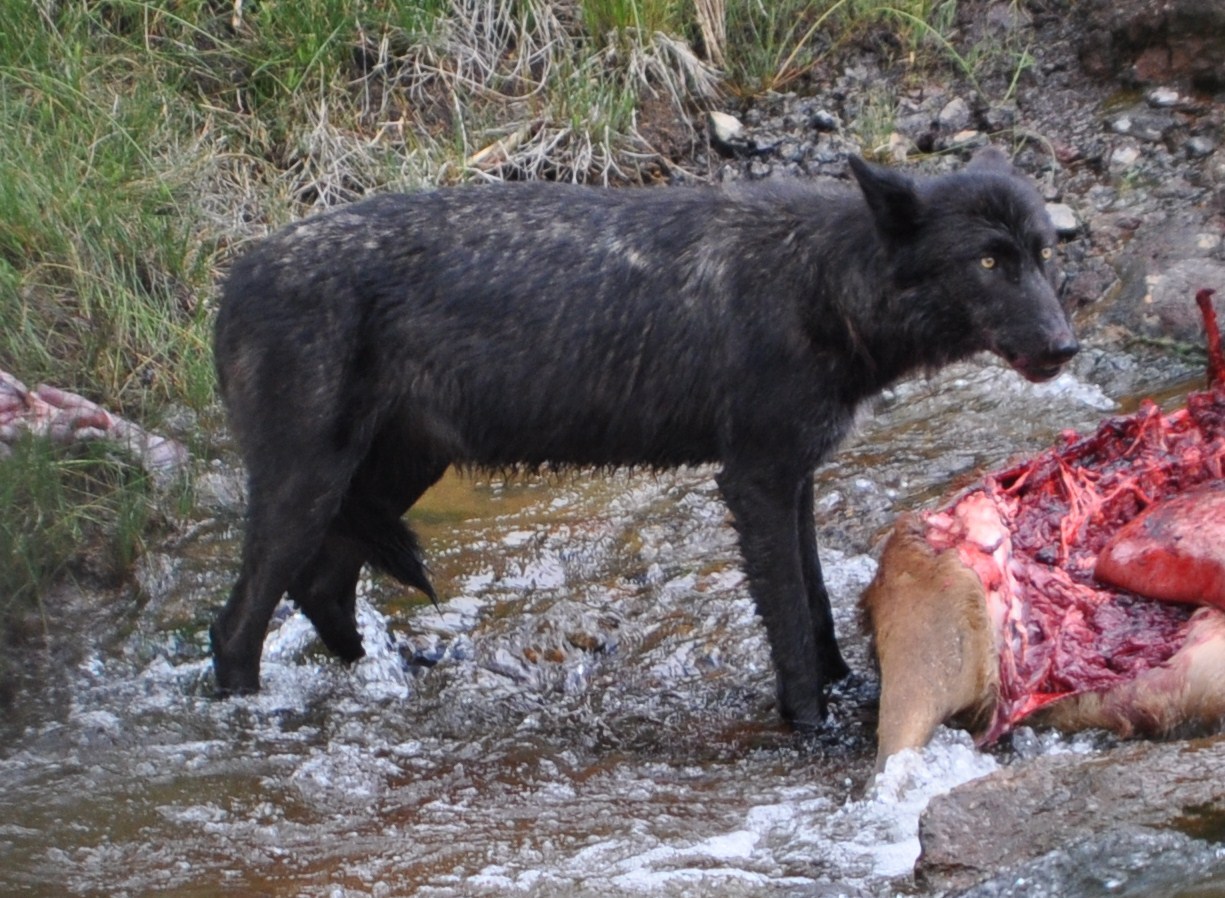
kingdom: Animalia
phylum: Chordata
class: Mammalia
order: Carnivora
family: Canidae
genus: Canis
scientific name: Canis lupus
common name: Gray wolf
